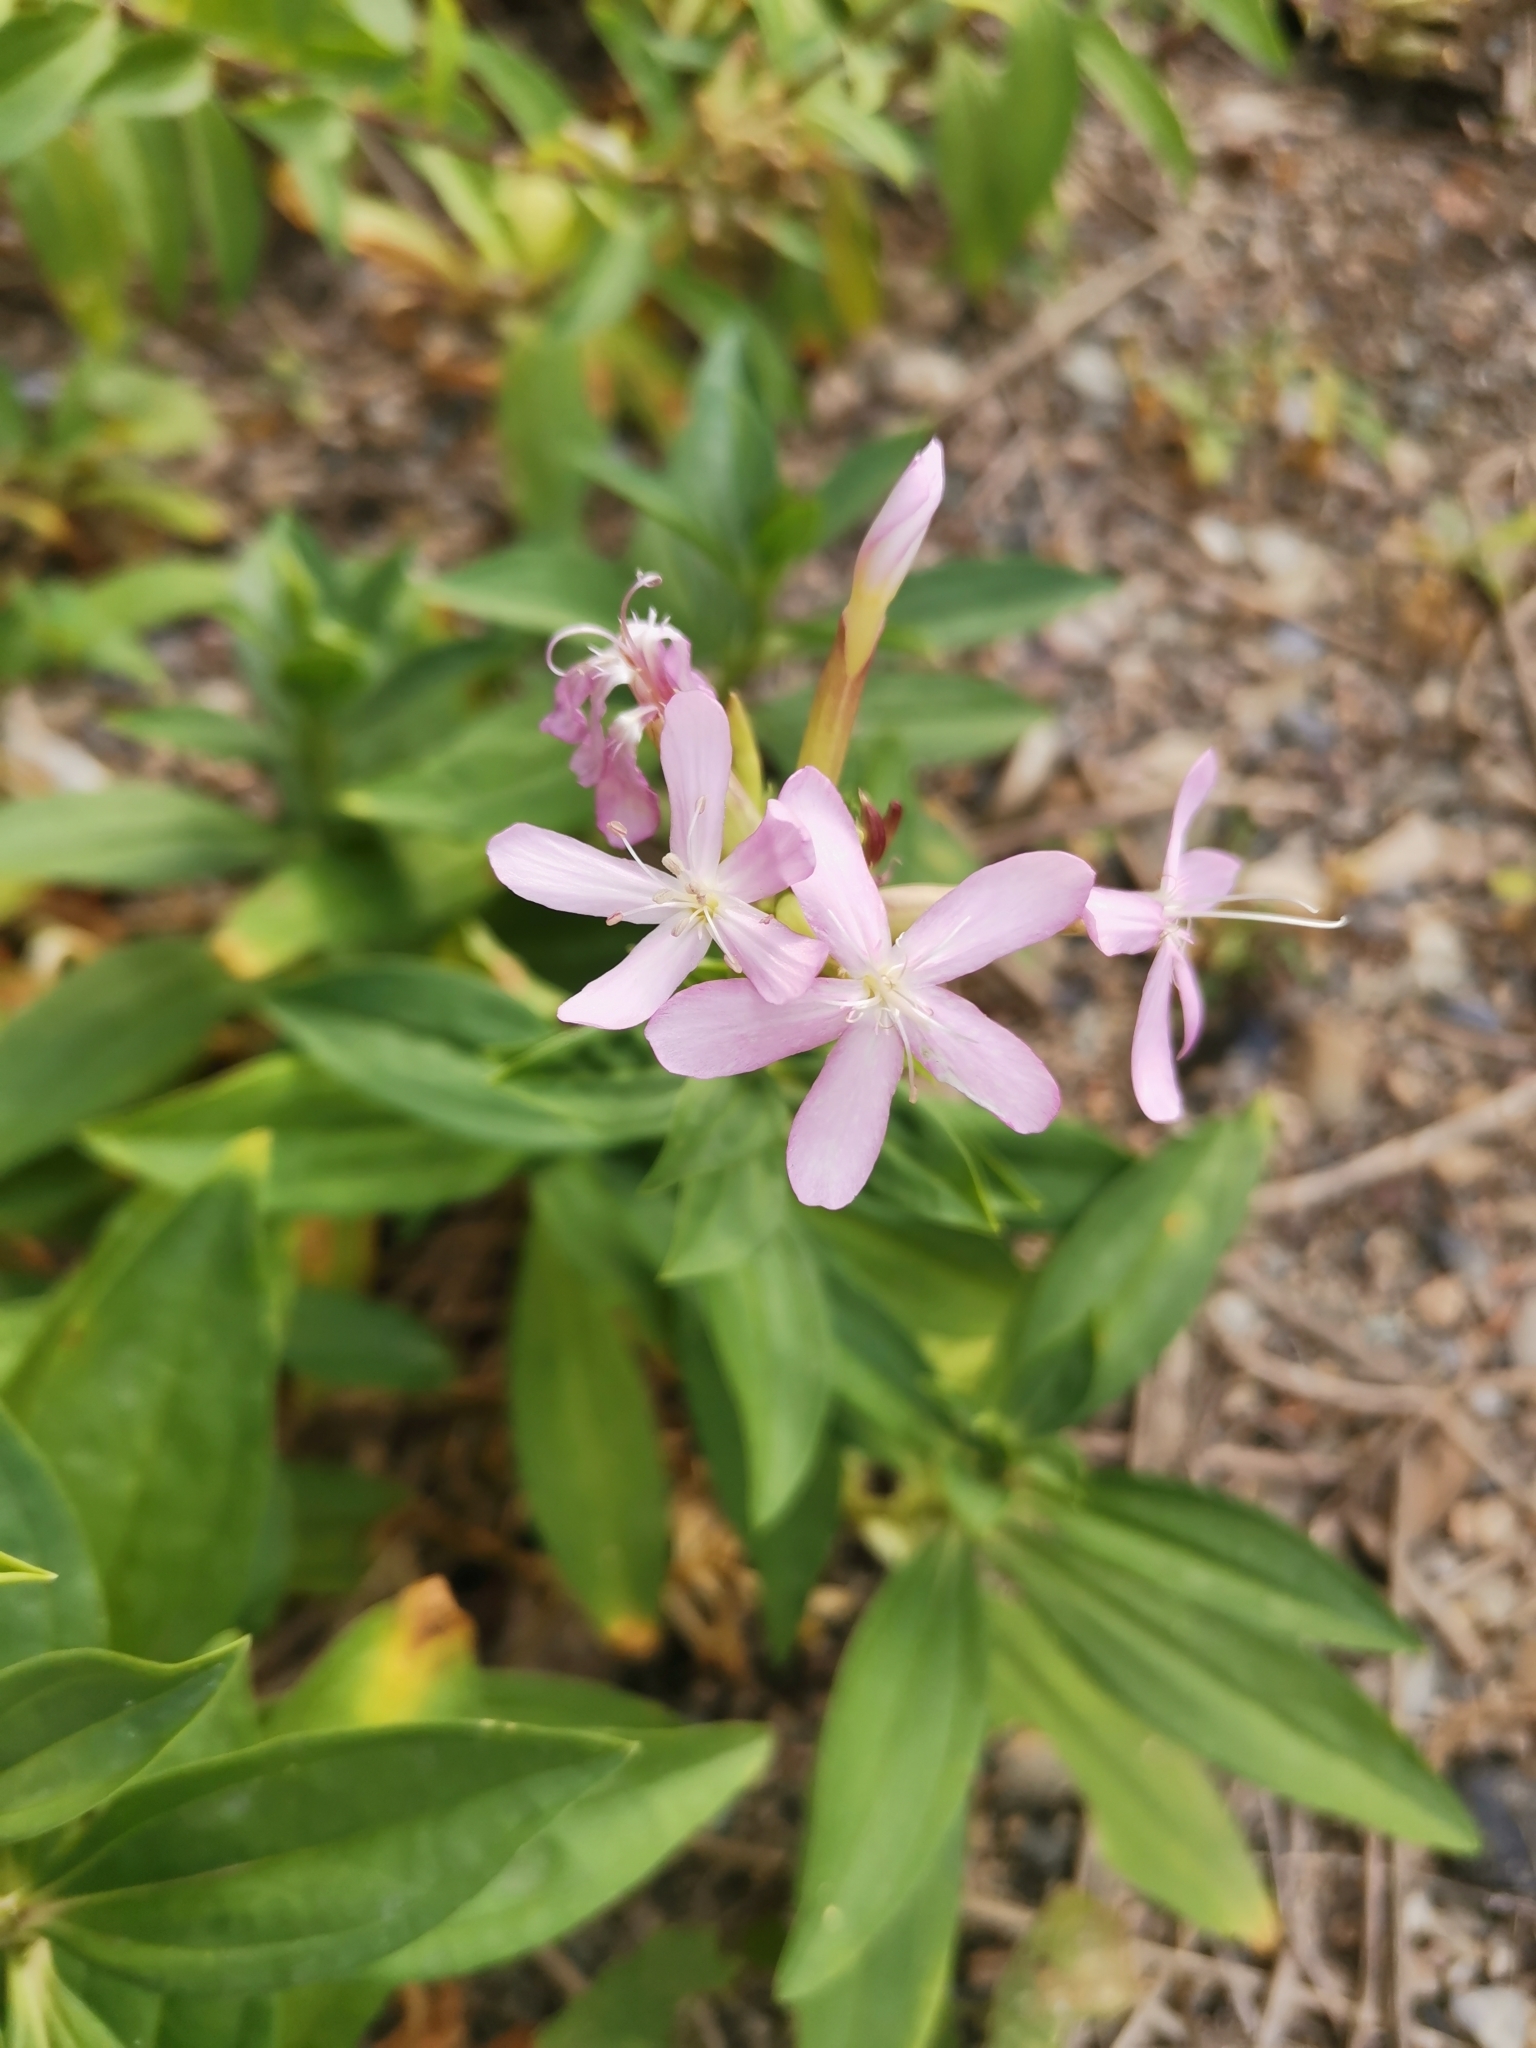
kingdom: Plantae
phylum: Tracheophyta
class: Magnoliopsida
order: Caryophyllales
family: Caryophyllaceae
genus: Saponaria
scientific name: Saponaria officinalis
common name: Soapwort
